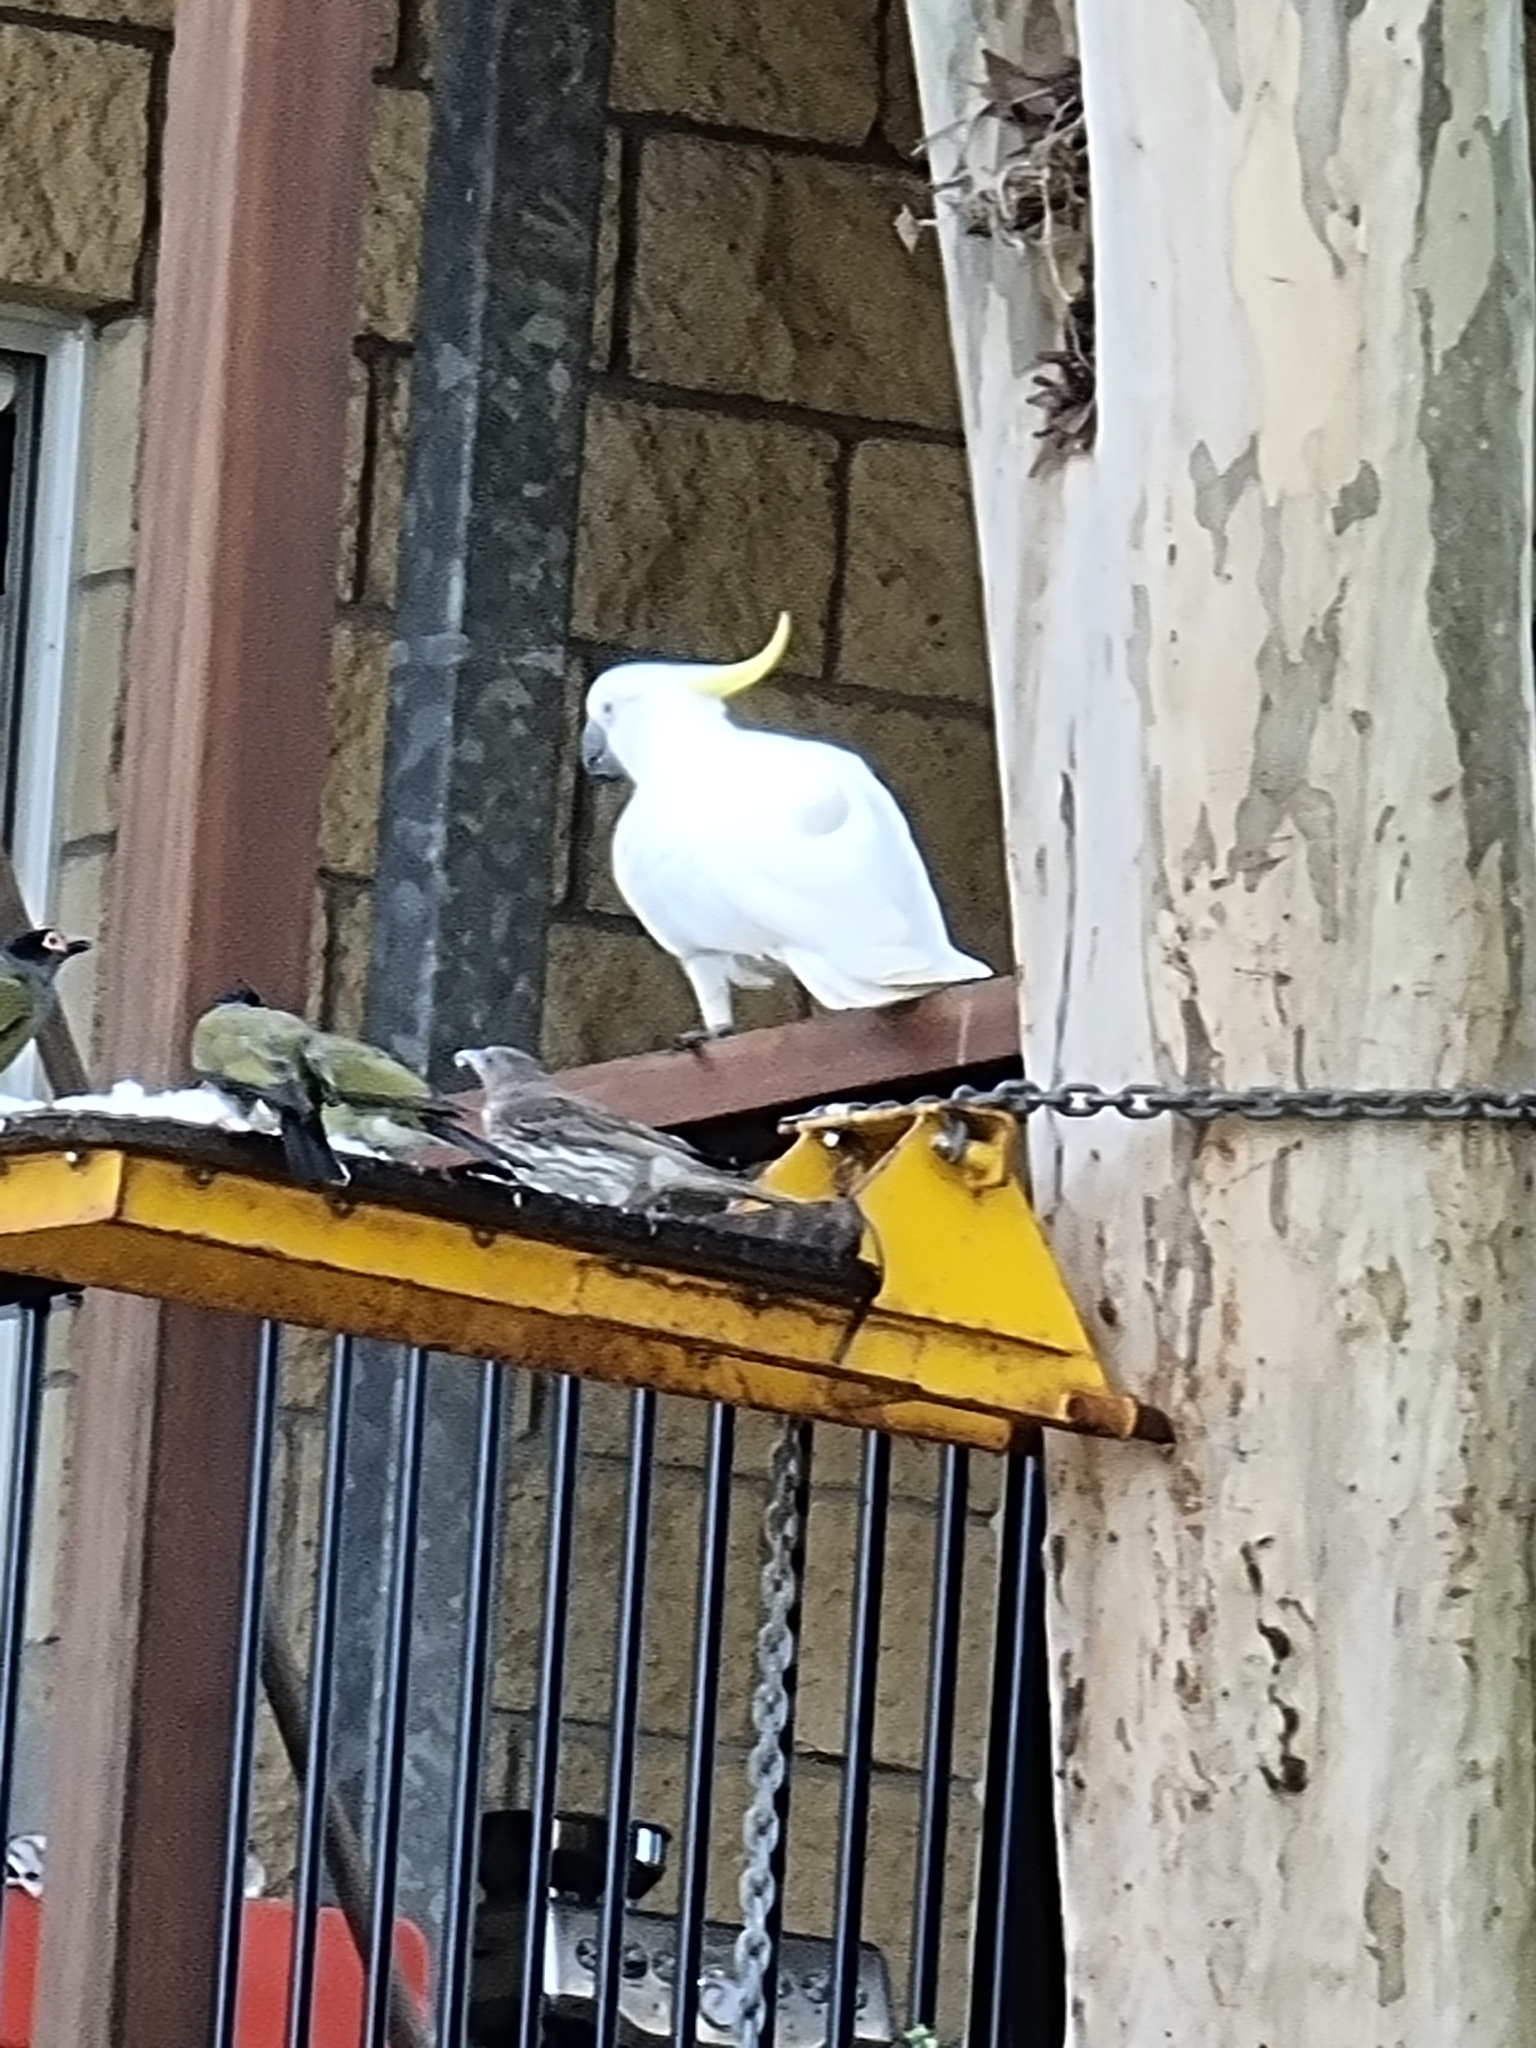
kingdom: Animalia
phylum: Chordata
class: Aves
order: Passeriformes
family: Oriolidae
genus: Sphecotheres
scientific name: Sphecotheres vieilloti
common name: Australasian figbird
